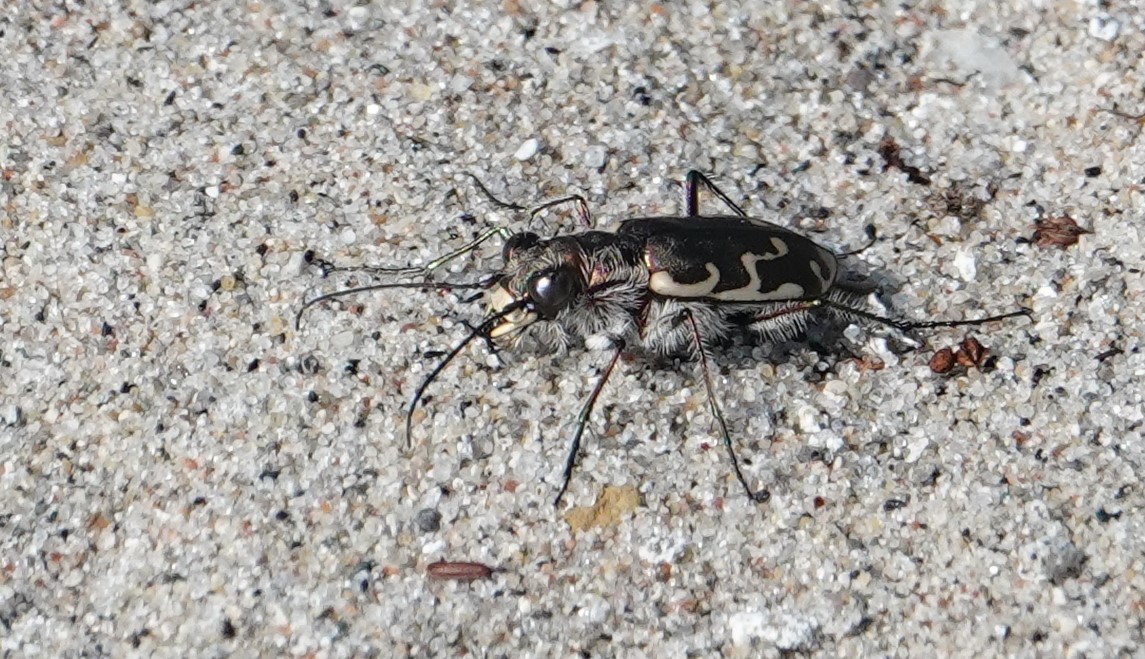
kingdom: Animalia
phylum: Arthropoda
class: Insecta
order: Coleoptera
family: Carabidae
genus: Cicindela
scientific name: Cicindela repanda
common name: Bronzed tiger beetle
